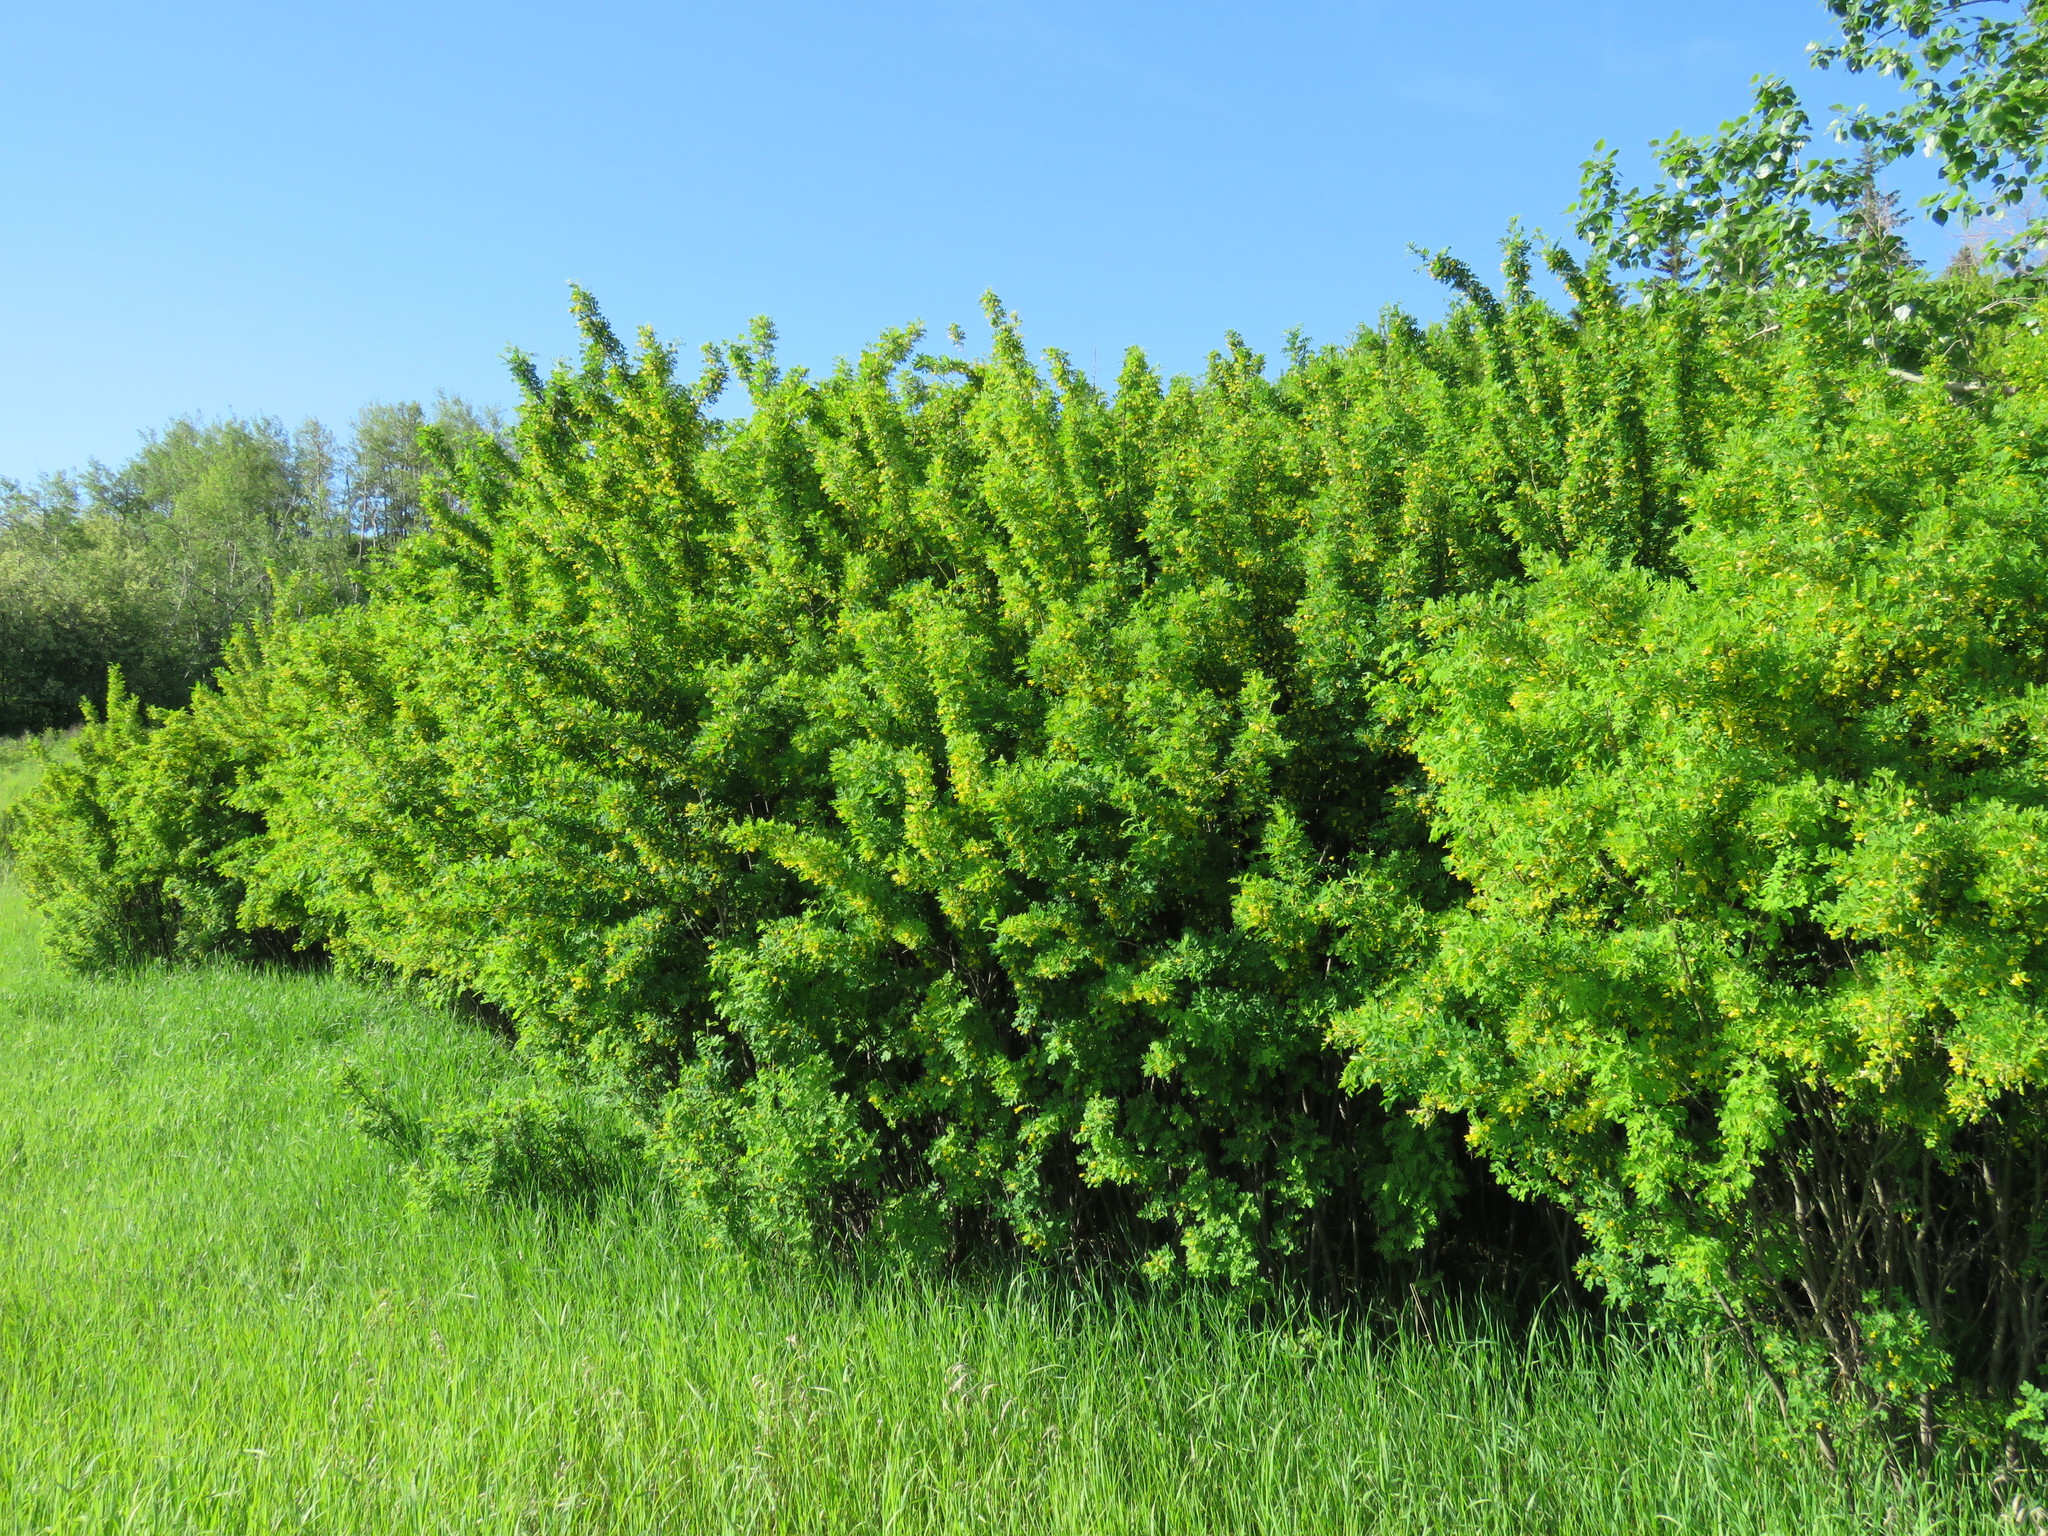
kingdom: Plantae
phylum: Tracheophyta
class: Magnoliopsida
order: Fabales
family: Fabaceae
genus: Caragana
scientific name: Caragana arborescens
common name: Siberian peashrub
